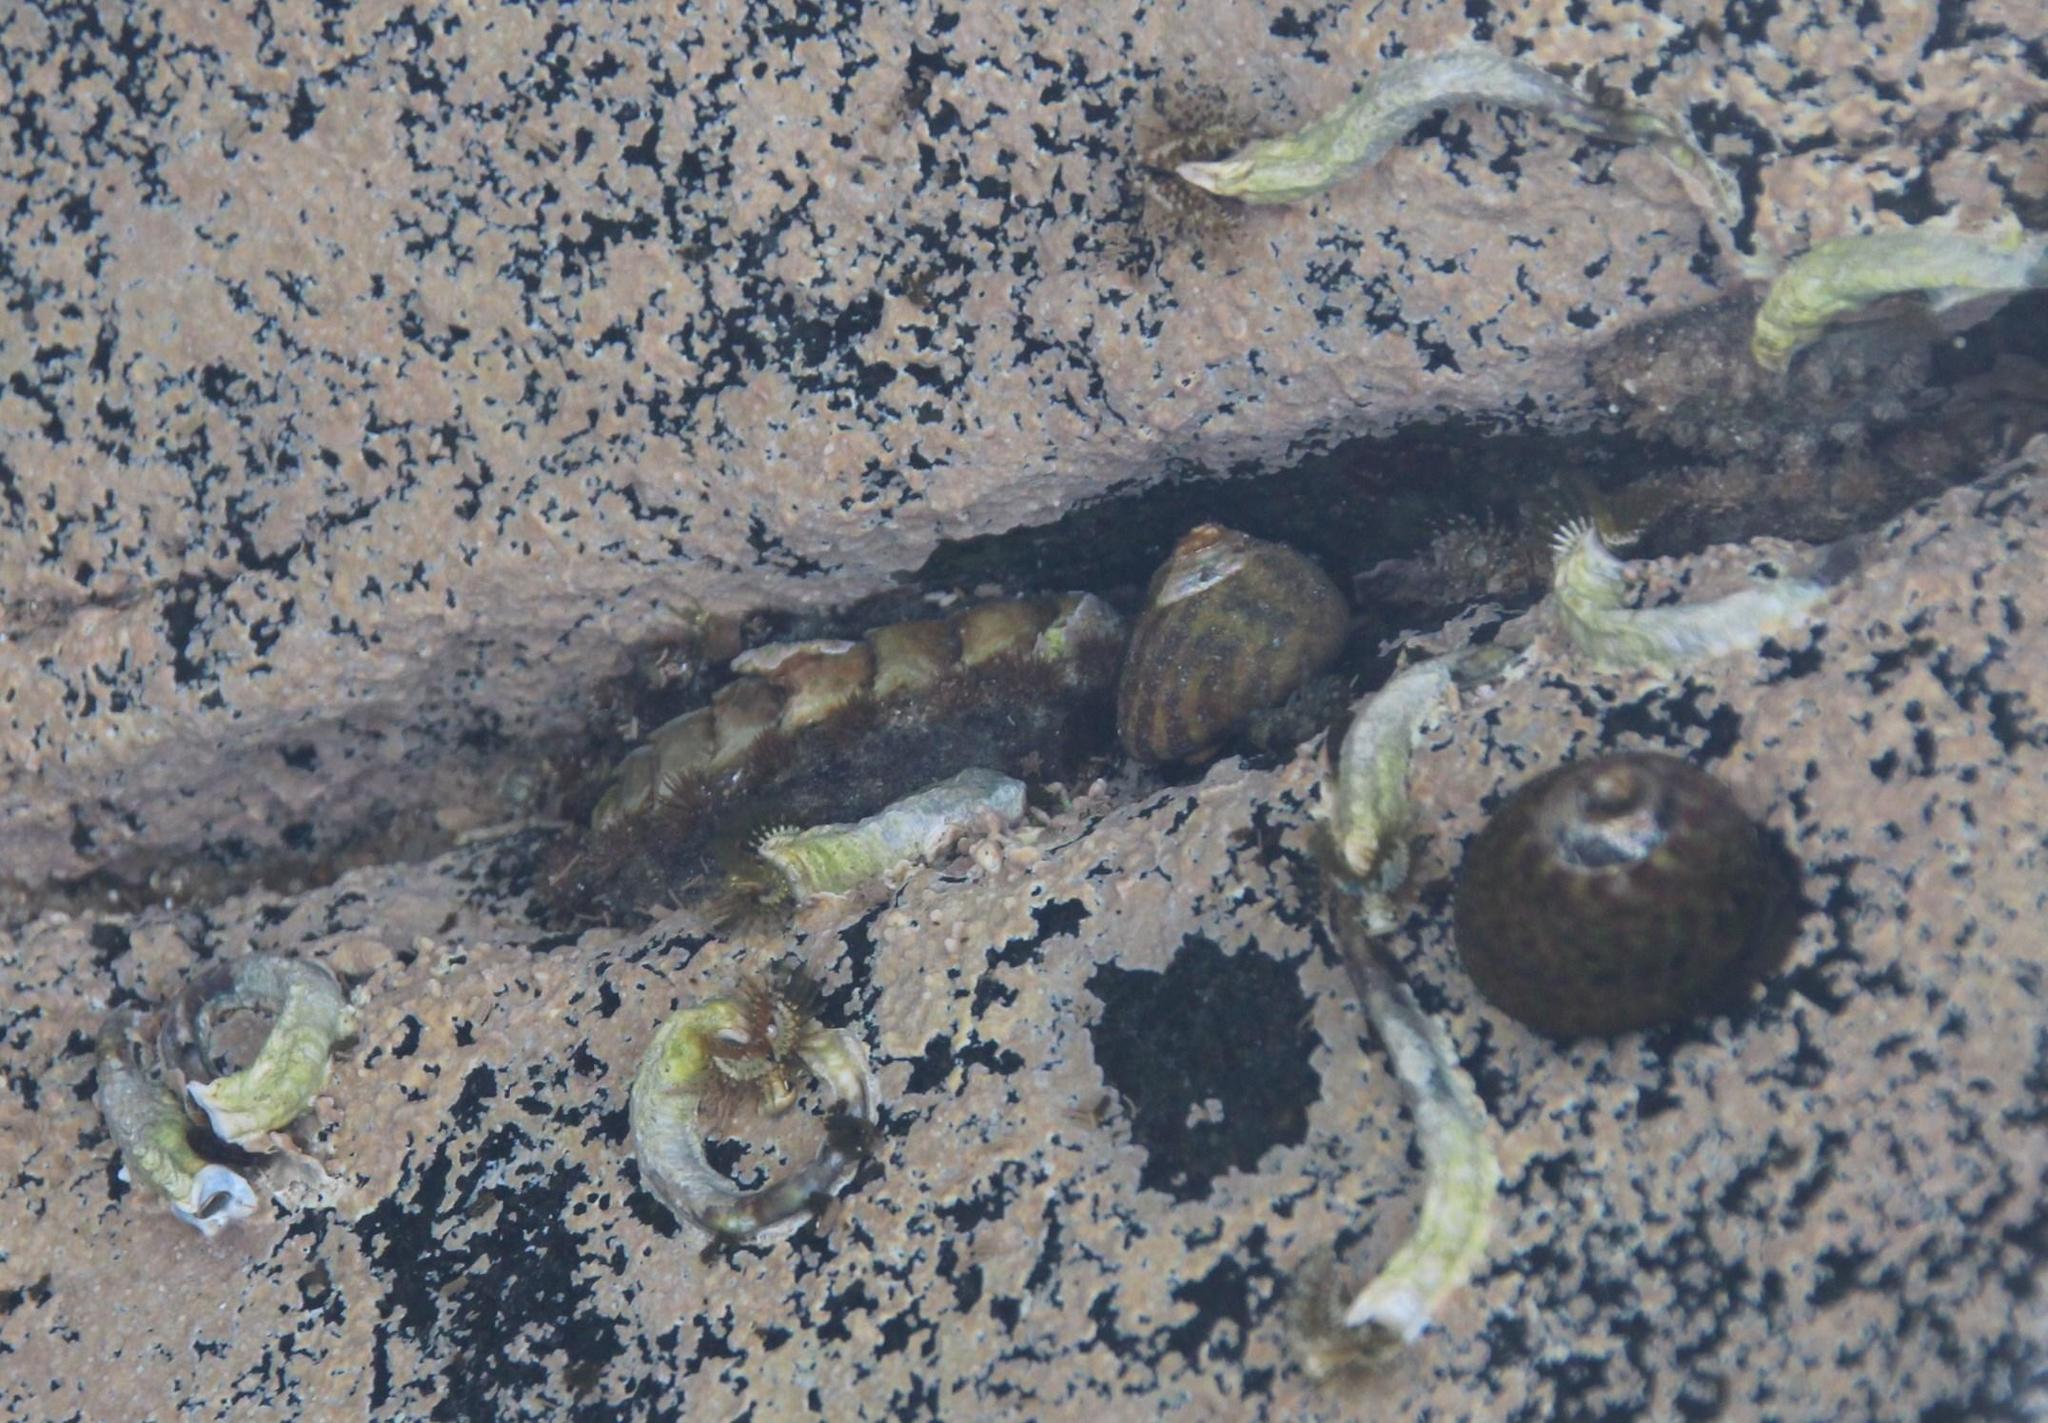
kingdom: Animalia
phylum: Mollusca
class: Polyplacophora
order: Chitonida
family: Acanthochitonidae
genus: Acanthochitona
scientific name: Acanthochitona garnoti
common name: Spiny chiton
